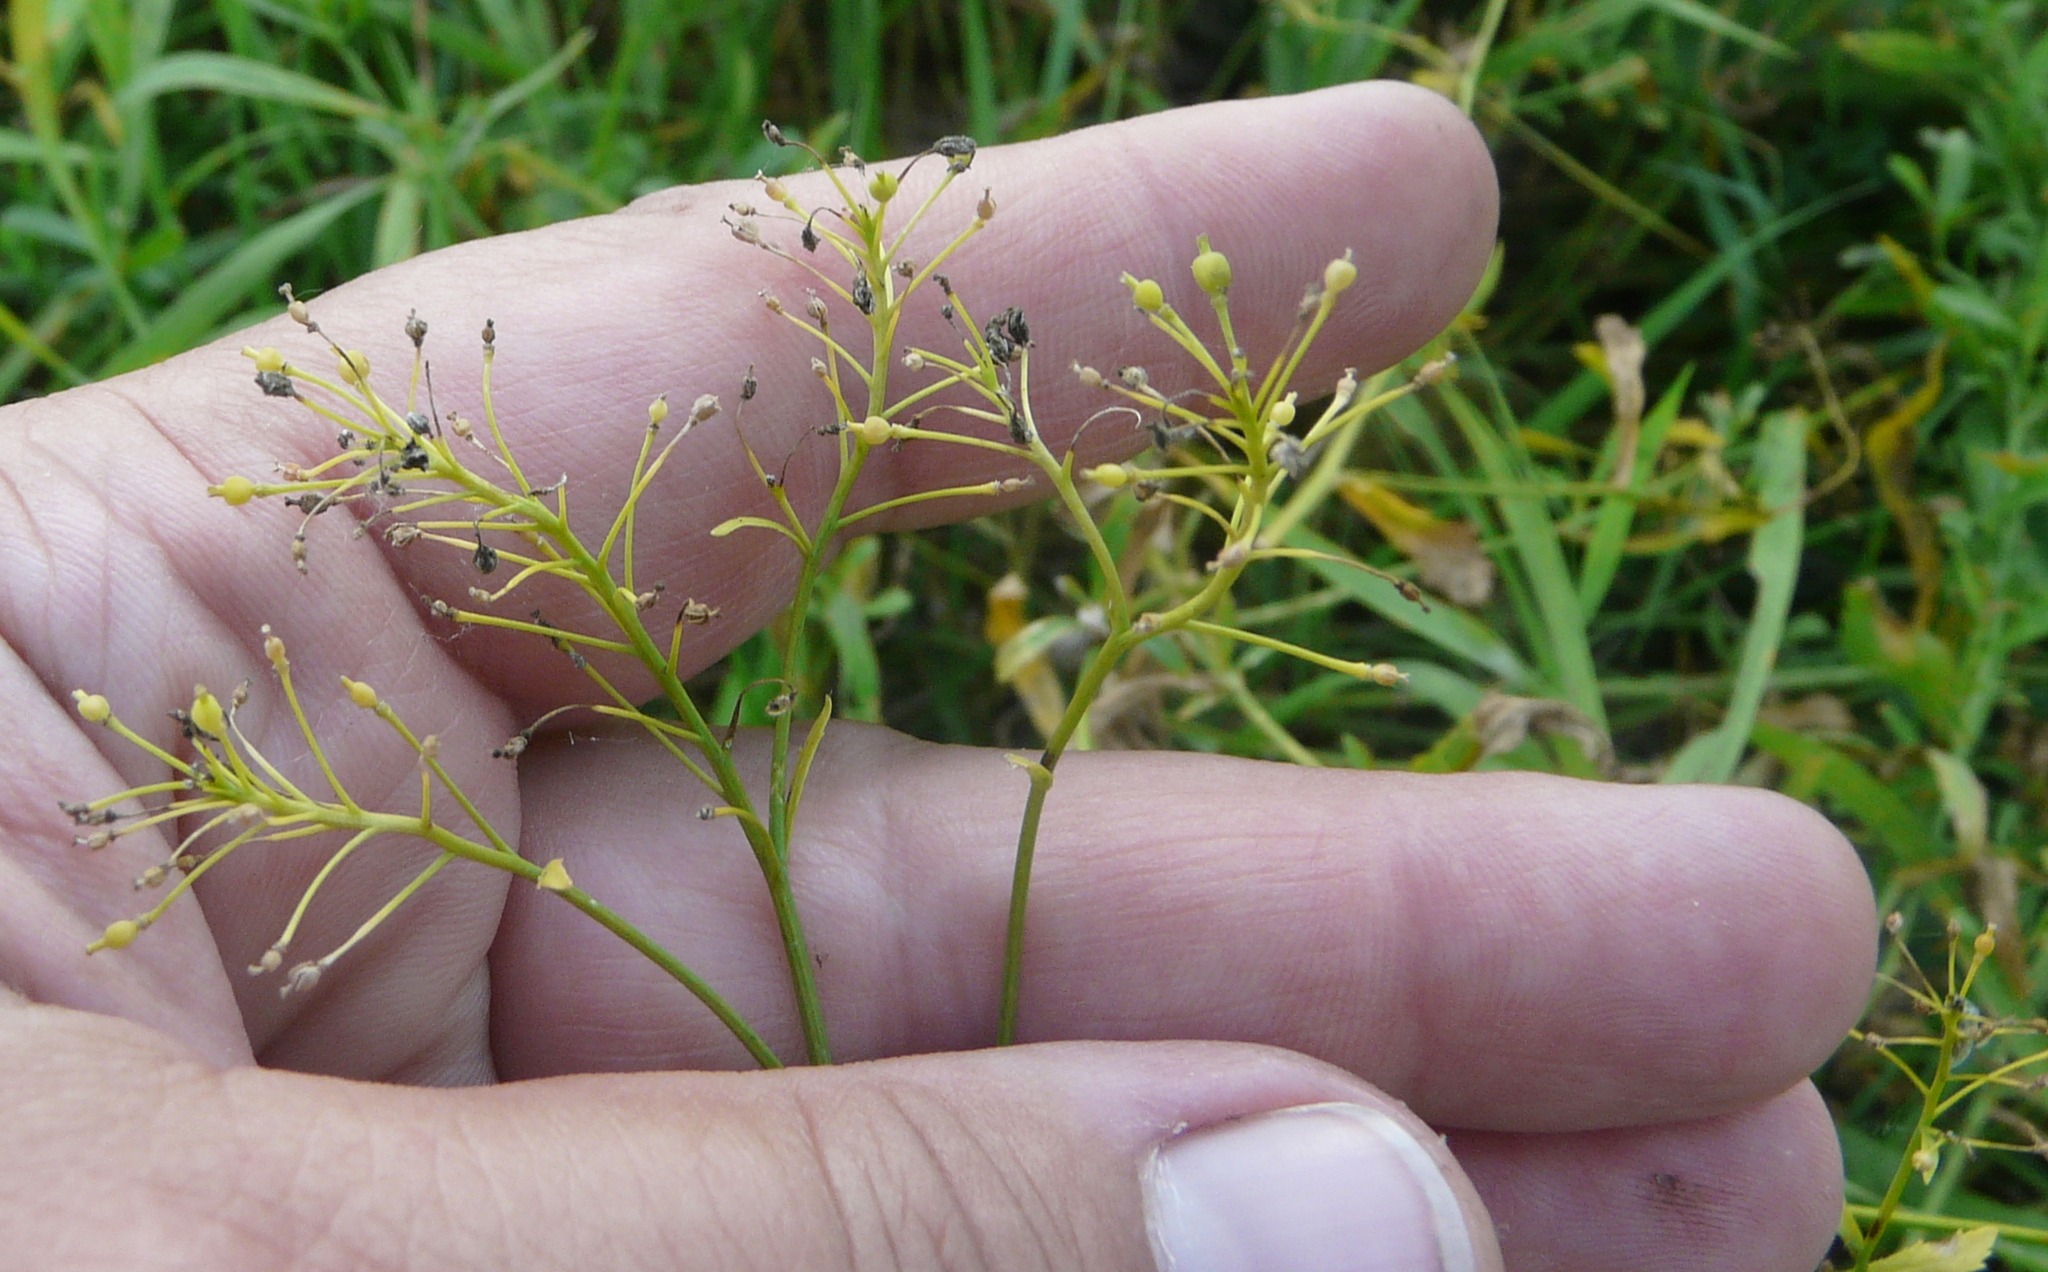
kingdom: Plantae
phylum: Tracheophyta
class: Magnoliopsida
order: Brassicales
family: Brassicaceae
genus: Rorippa
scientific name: Rorippa austriaca
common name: Austrian yellow-cress
